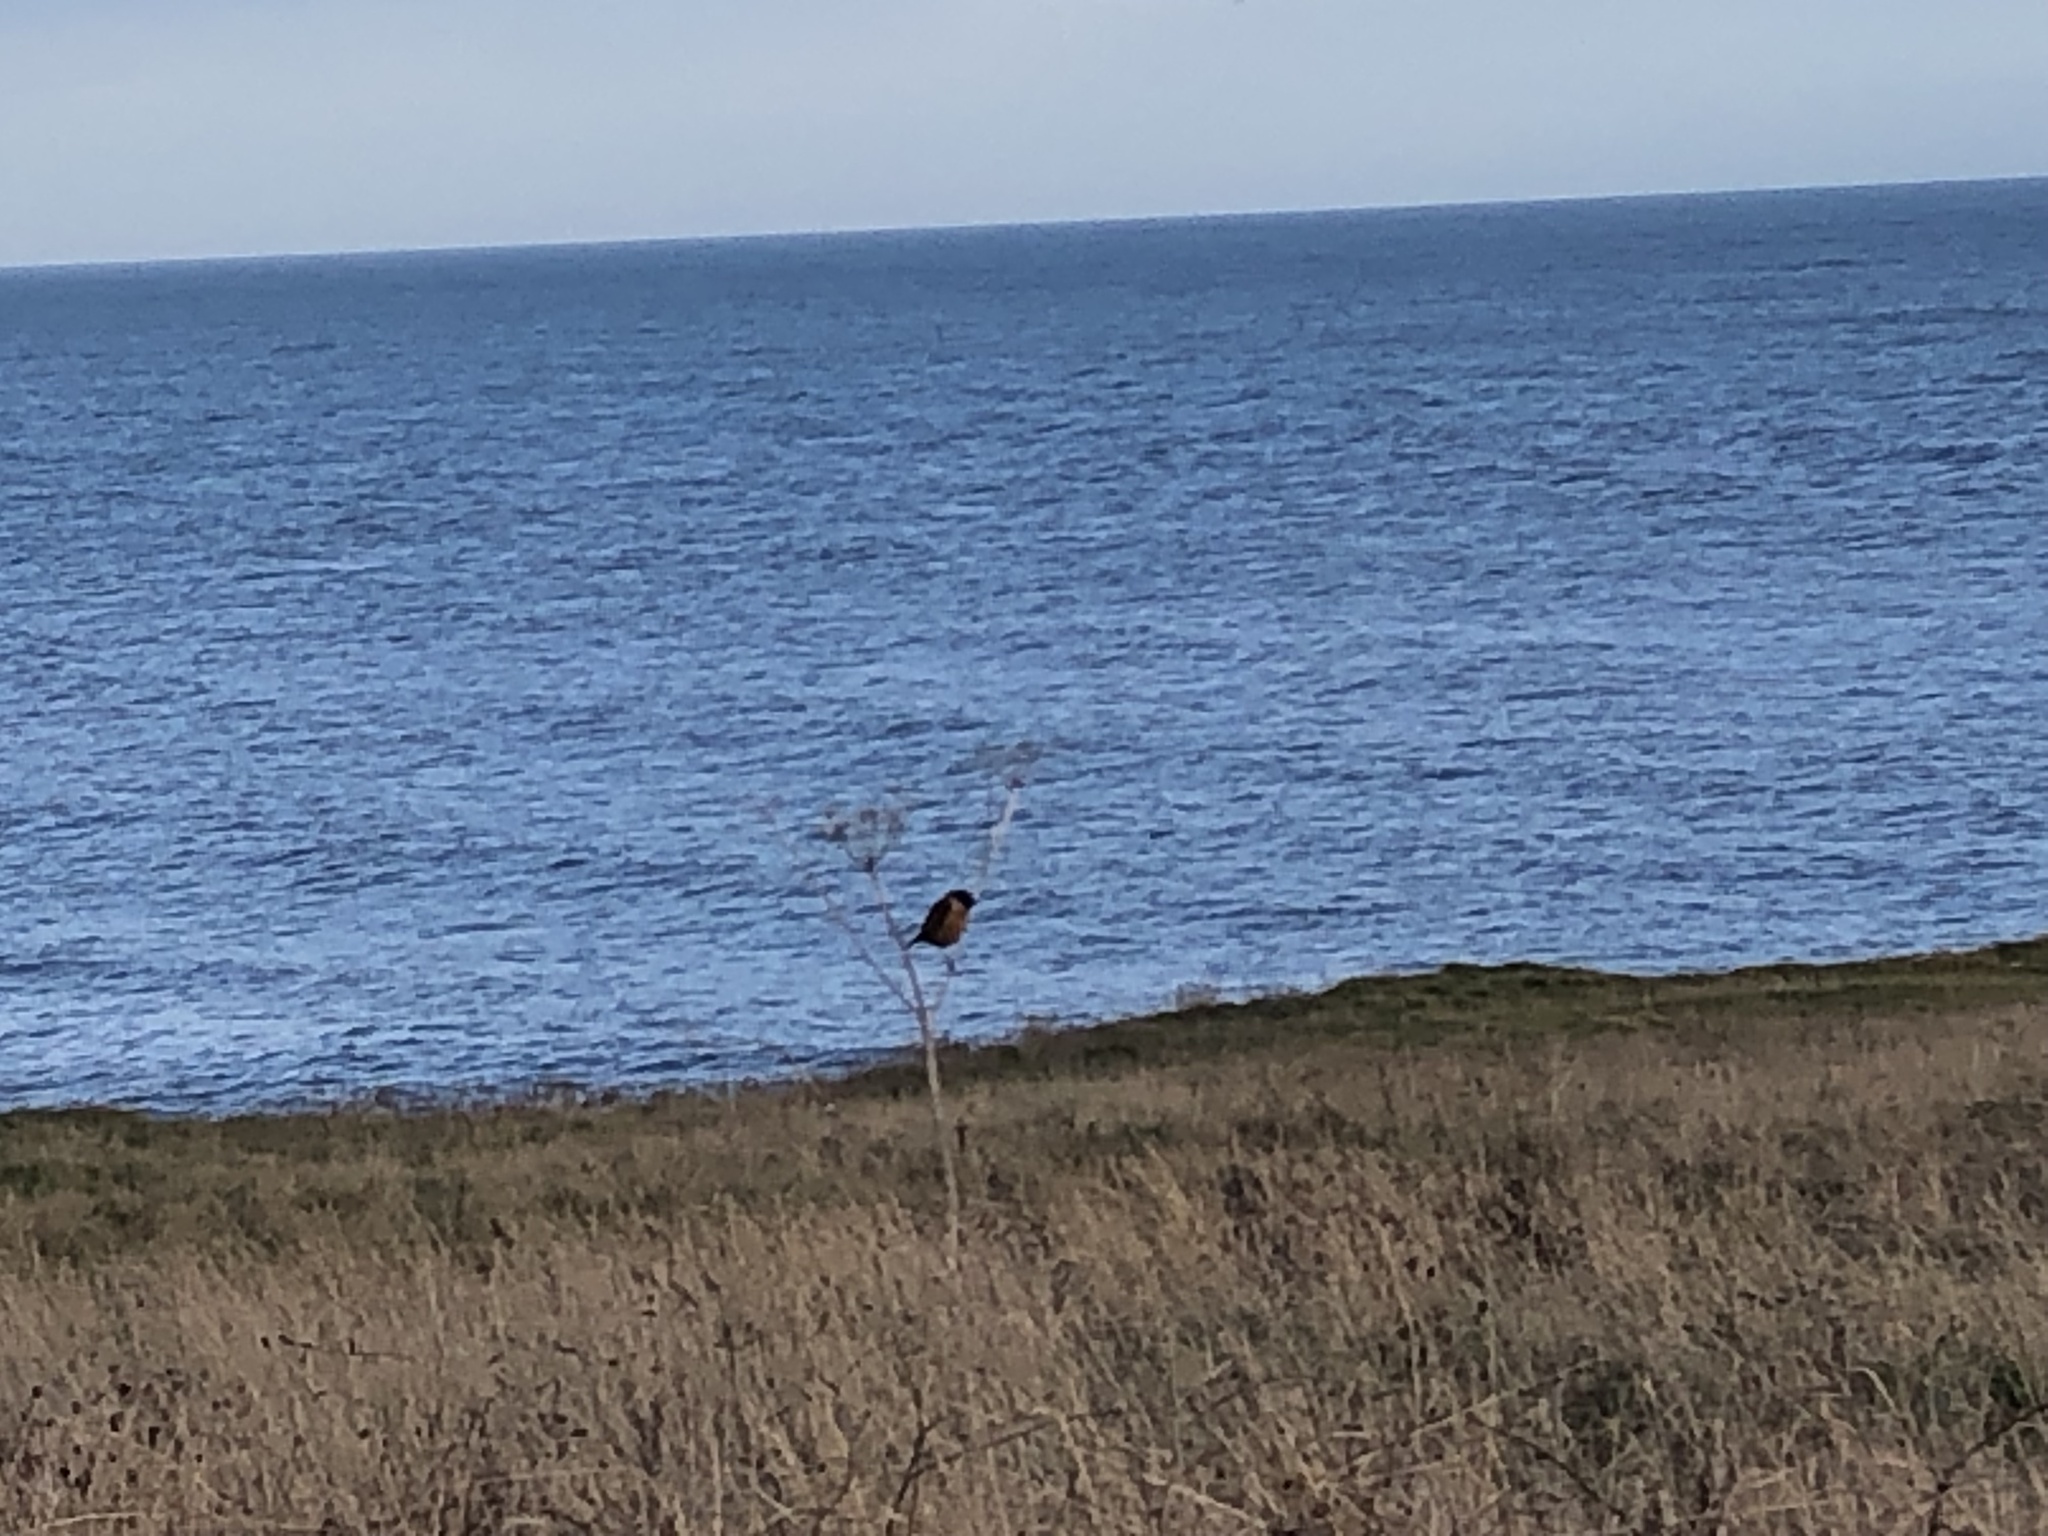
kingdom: Animalia
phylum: Chordata
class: Aves
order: Passeriformes
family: Muscicapidae
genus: Saxicola
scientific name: Saxicola rubicola
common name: European stonechat
